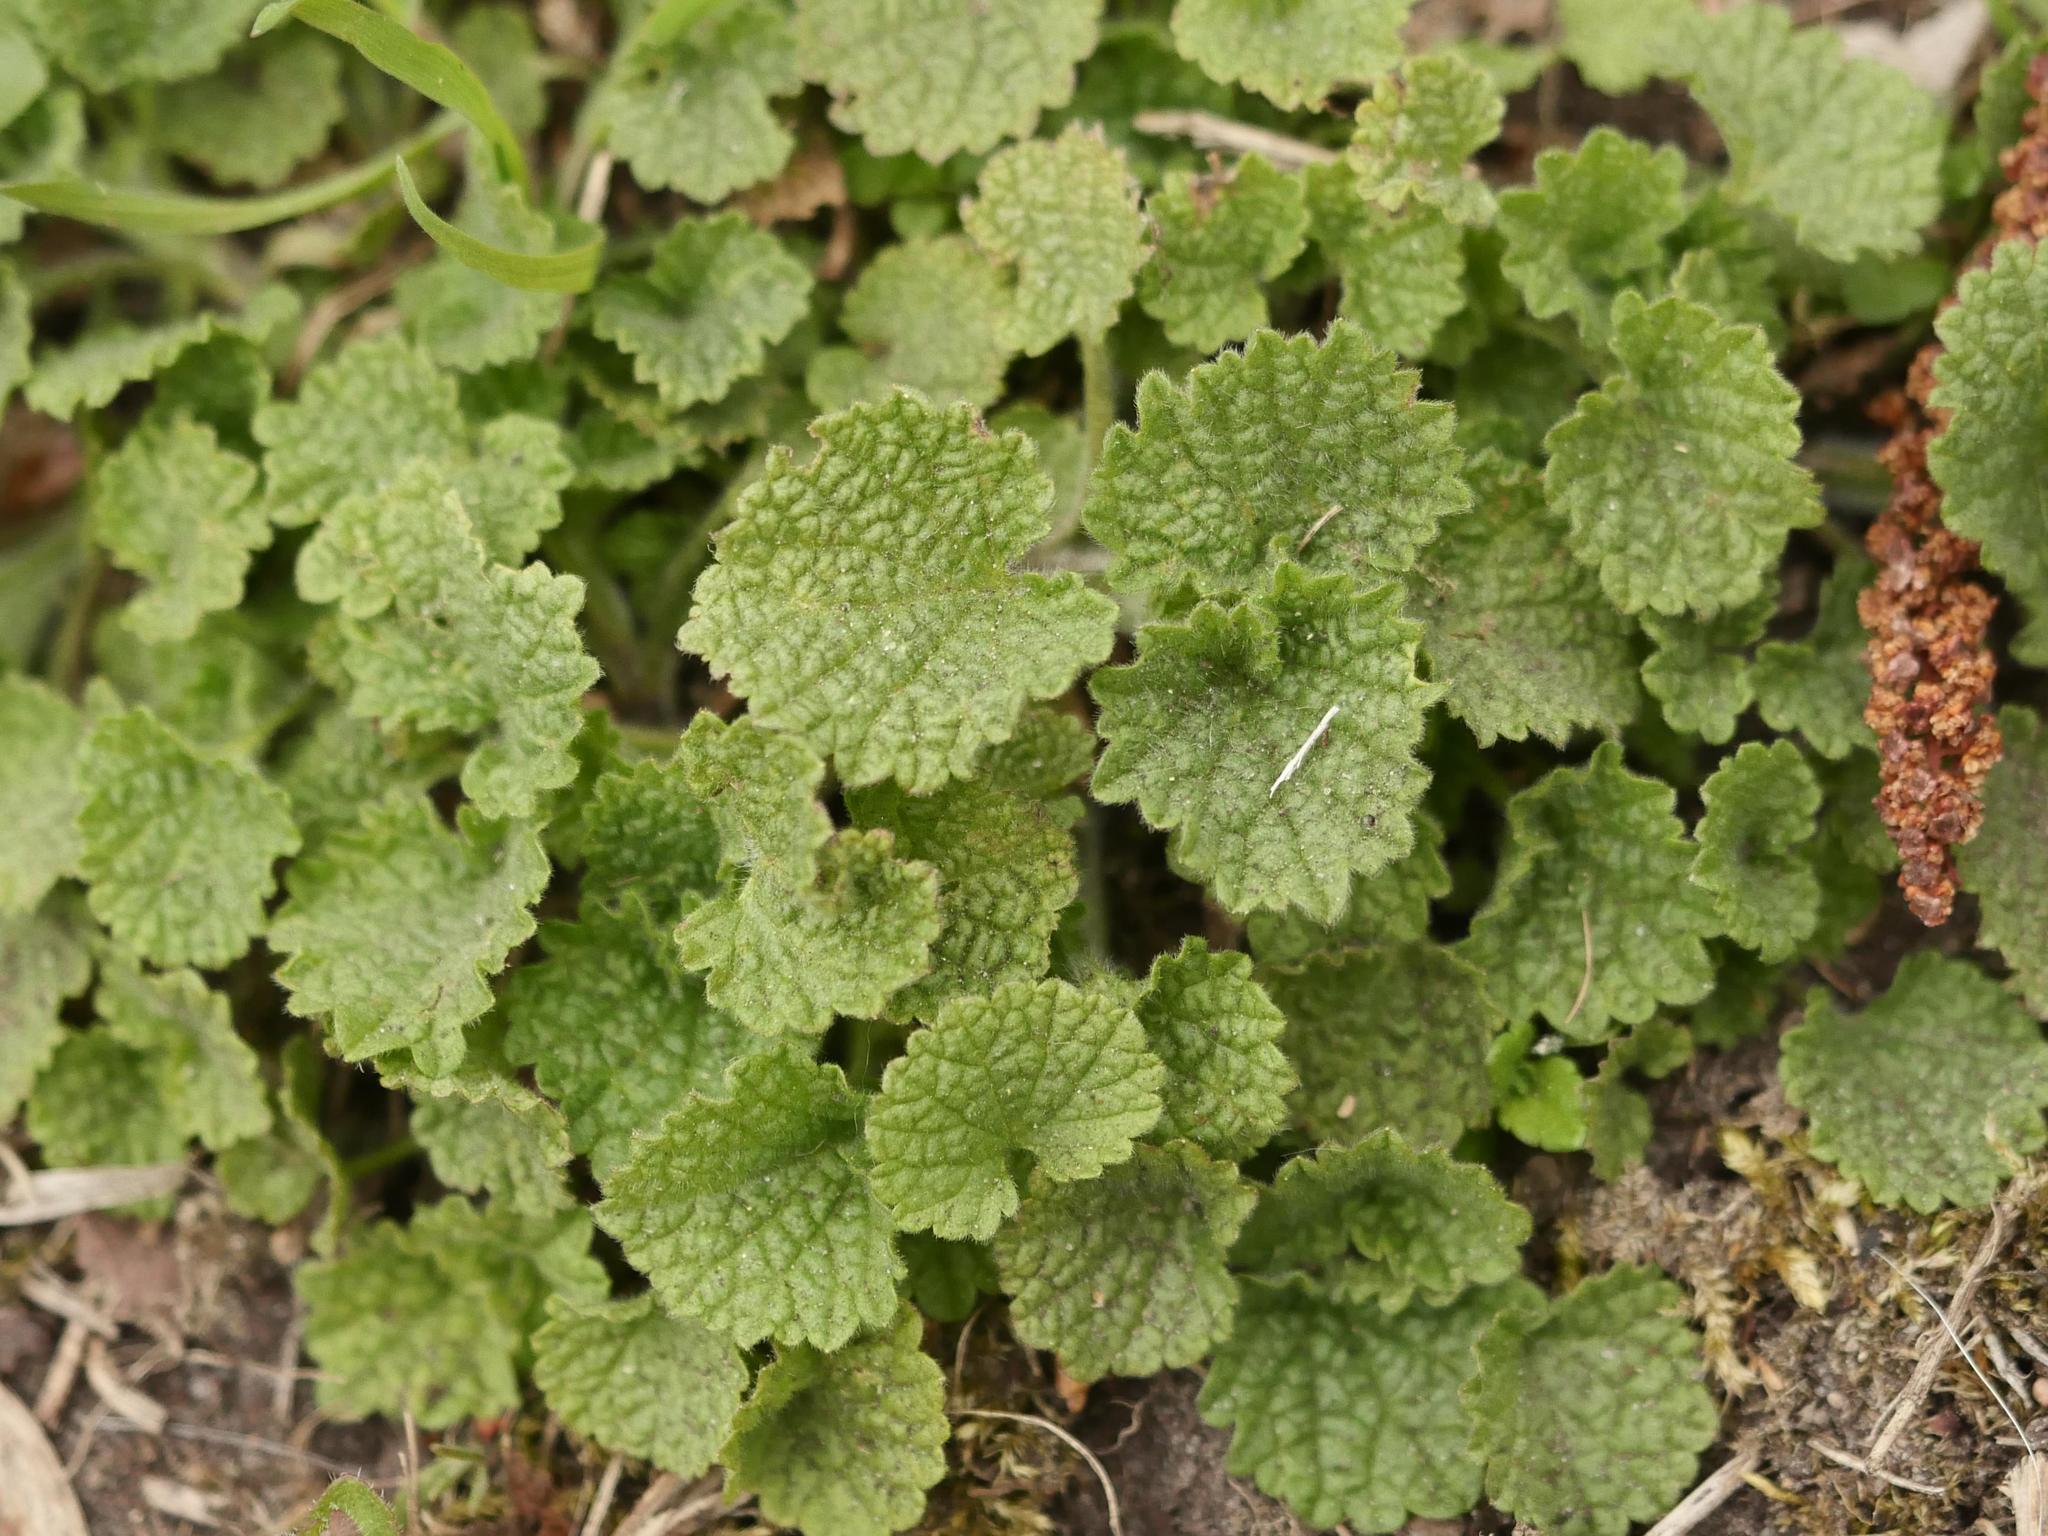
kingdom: Plantae
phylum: Tracheophyta
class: Magnoliopsida
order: Lamiales
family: Lamiaceae
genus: Ballota
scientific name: Ballota nigra
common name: Black horehound
